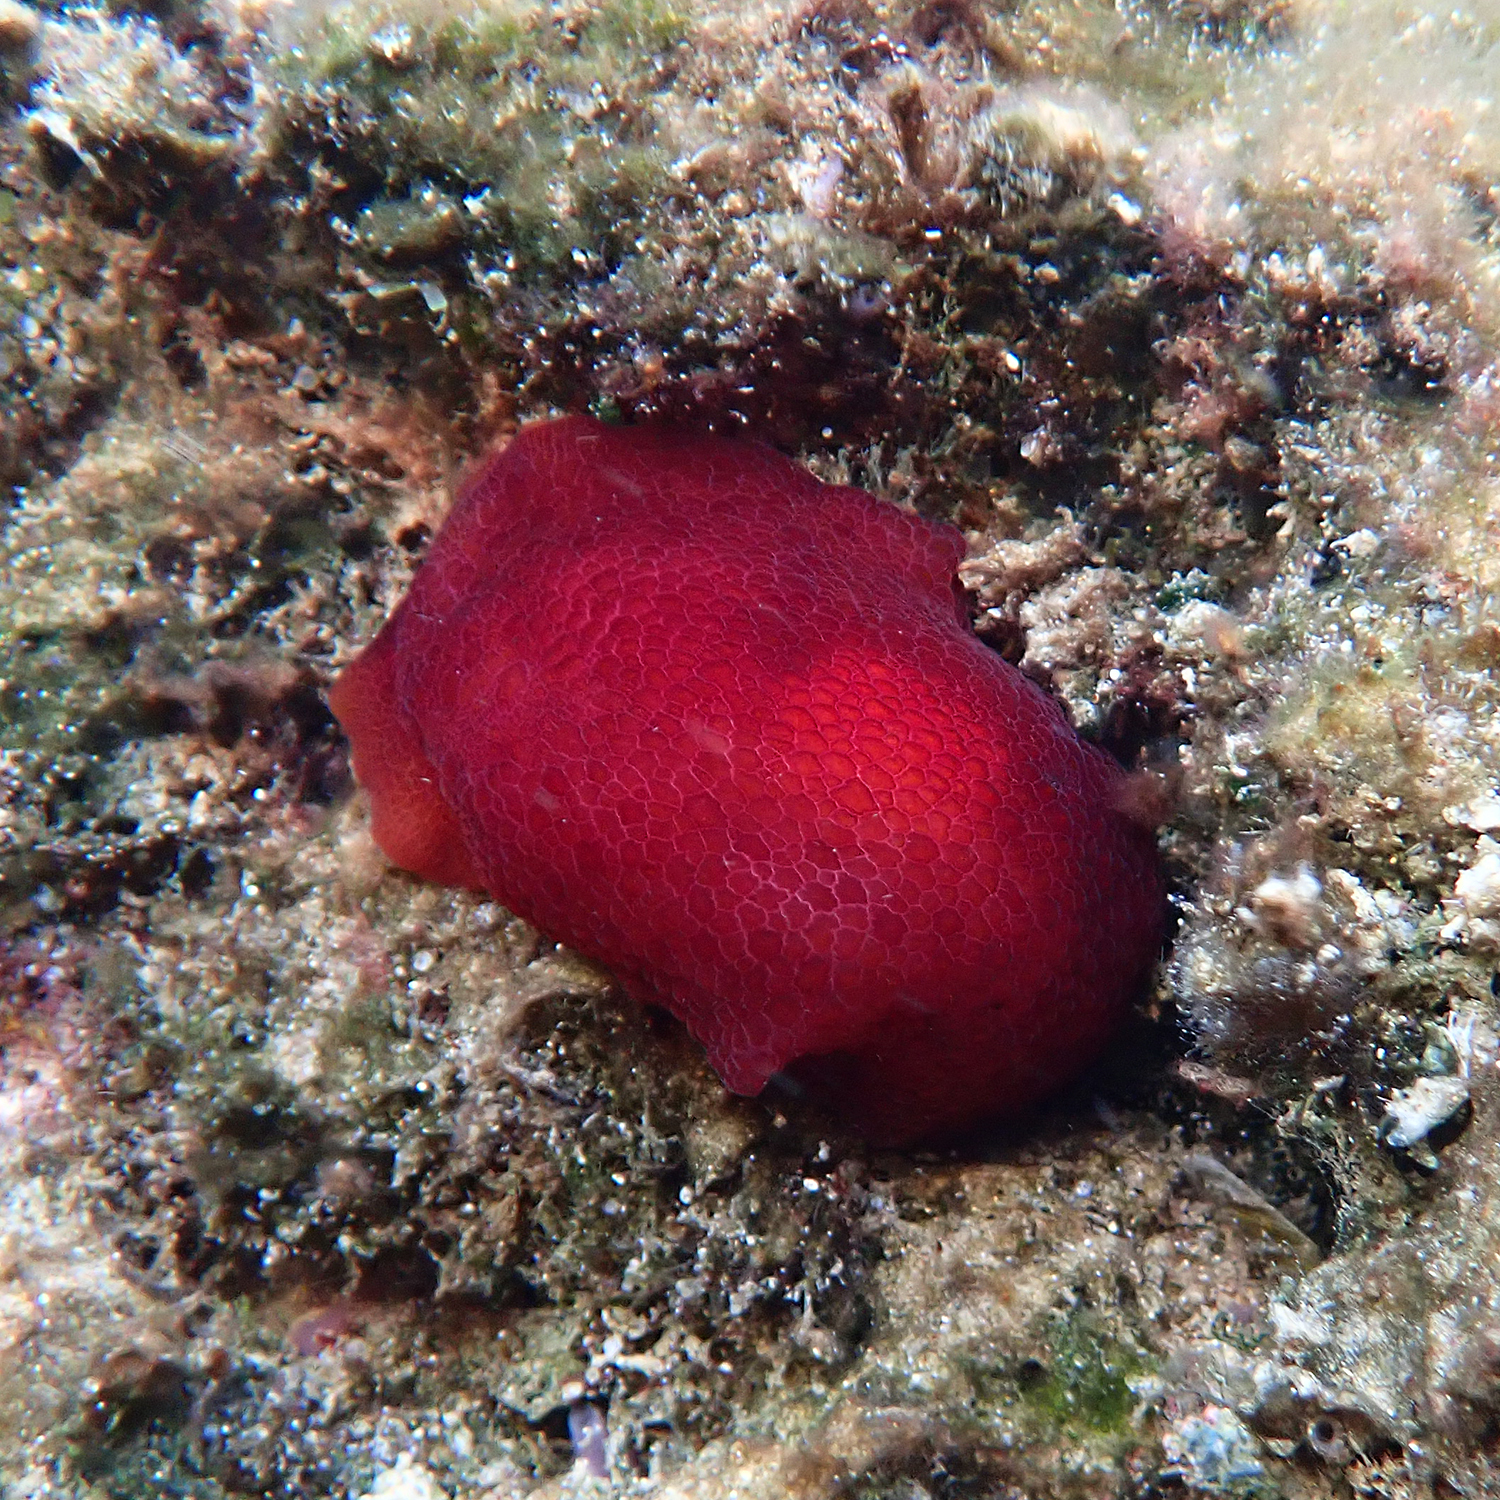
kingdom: Animalia
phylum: Mollusca
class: Gastropoda
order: Pleurobranchida
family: Pleurobranchidae
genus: Pleurobranchus
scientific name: Pleurobranchus peronii
